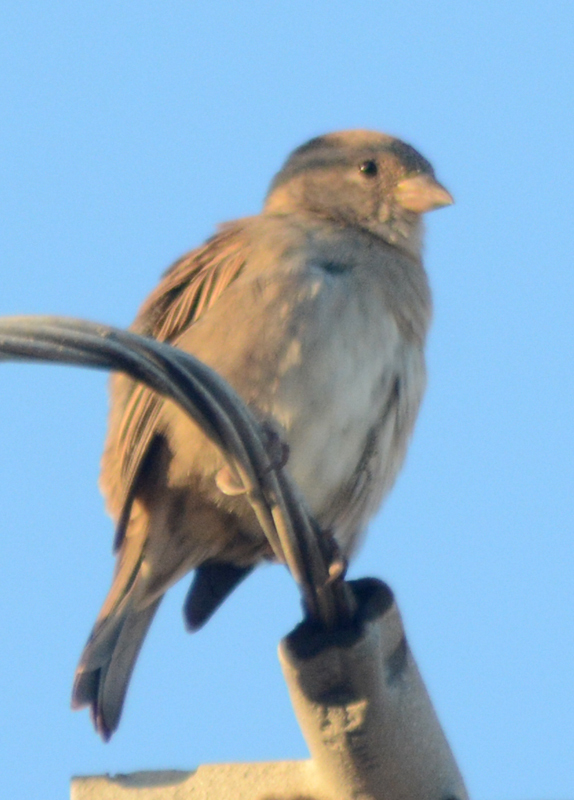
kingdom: Animalia
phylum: Chordata
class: Aves
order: Passeriformes
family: Passeridae
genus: Passer
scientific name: Passer domesticus
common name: House sparrow
